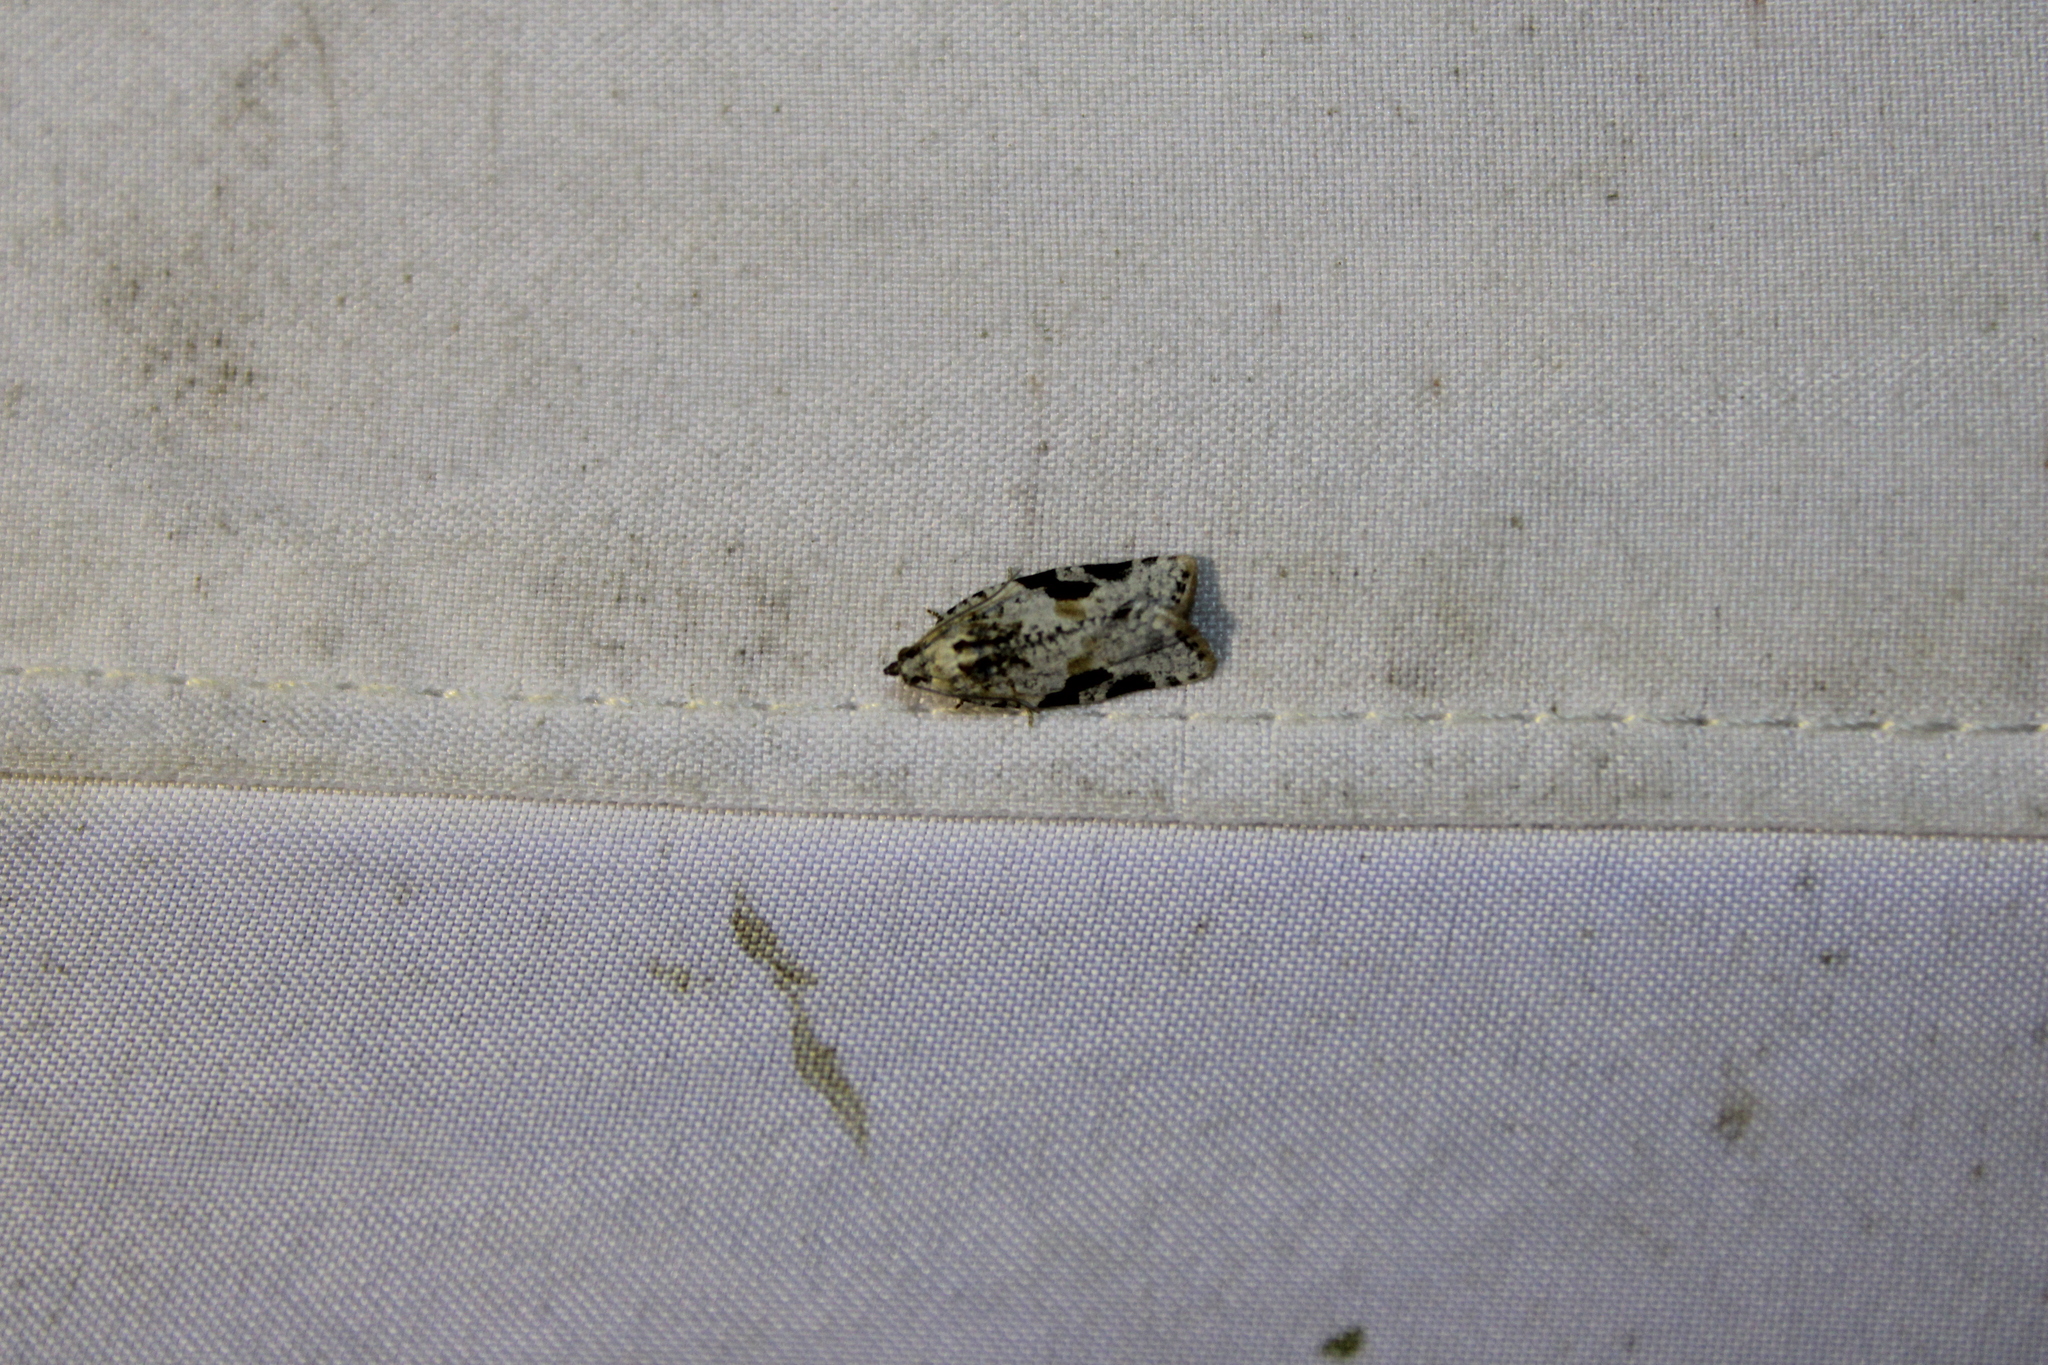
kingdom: Animalia
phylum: Arthropoda
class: Insecta
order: Lepidoptera
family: Tortricidae
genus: Argyrotaenia
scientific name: Argyrotaenia mariana
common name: Gray-banded leafroller moth
